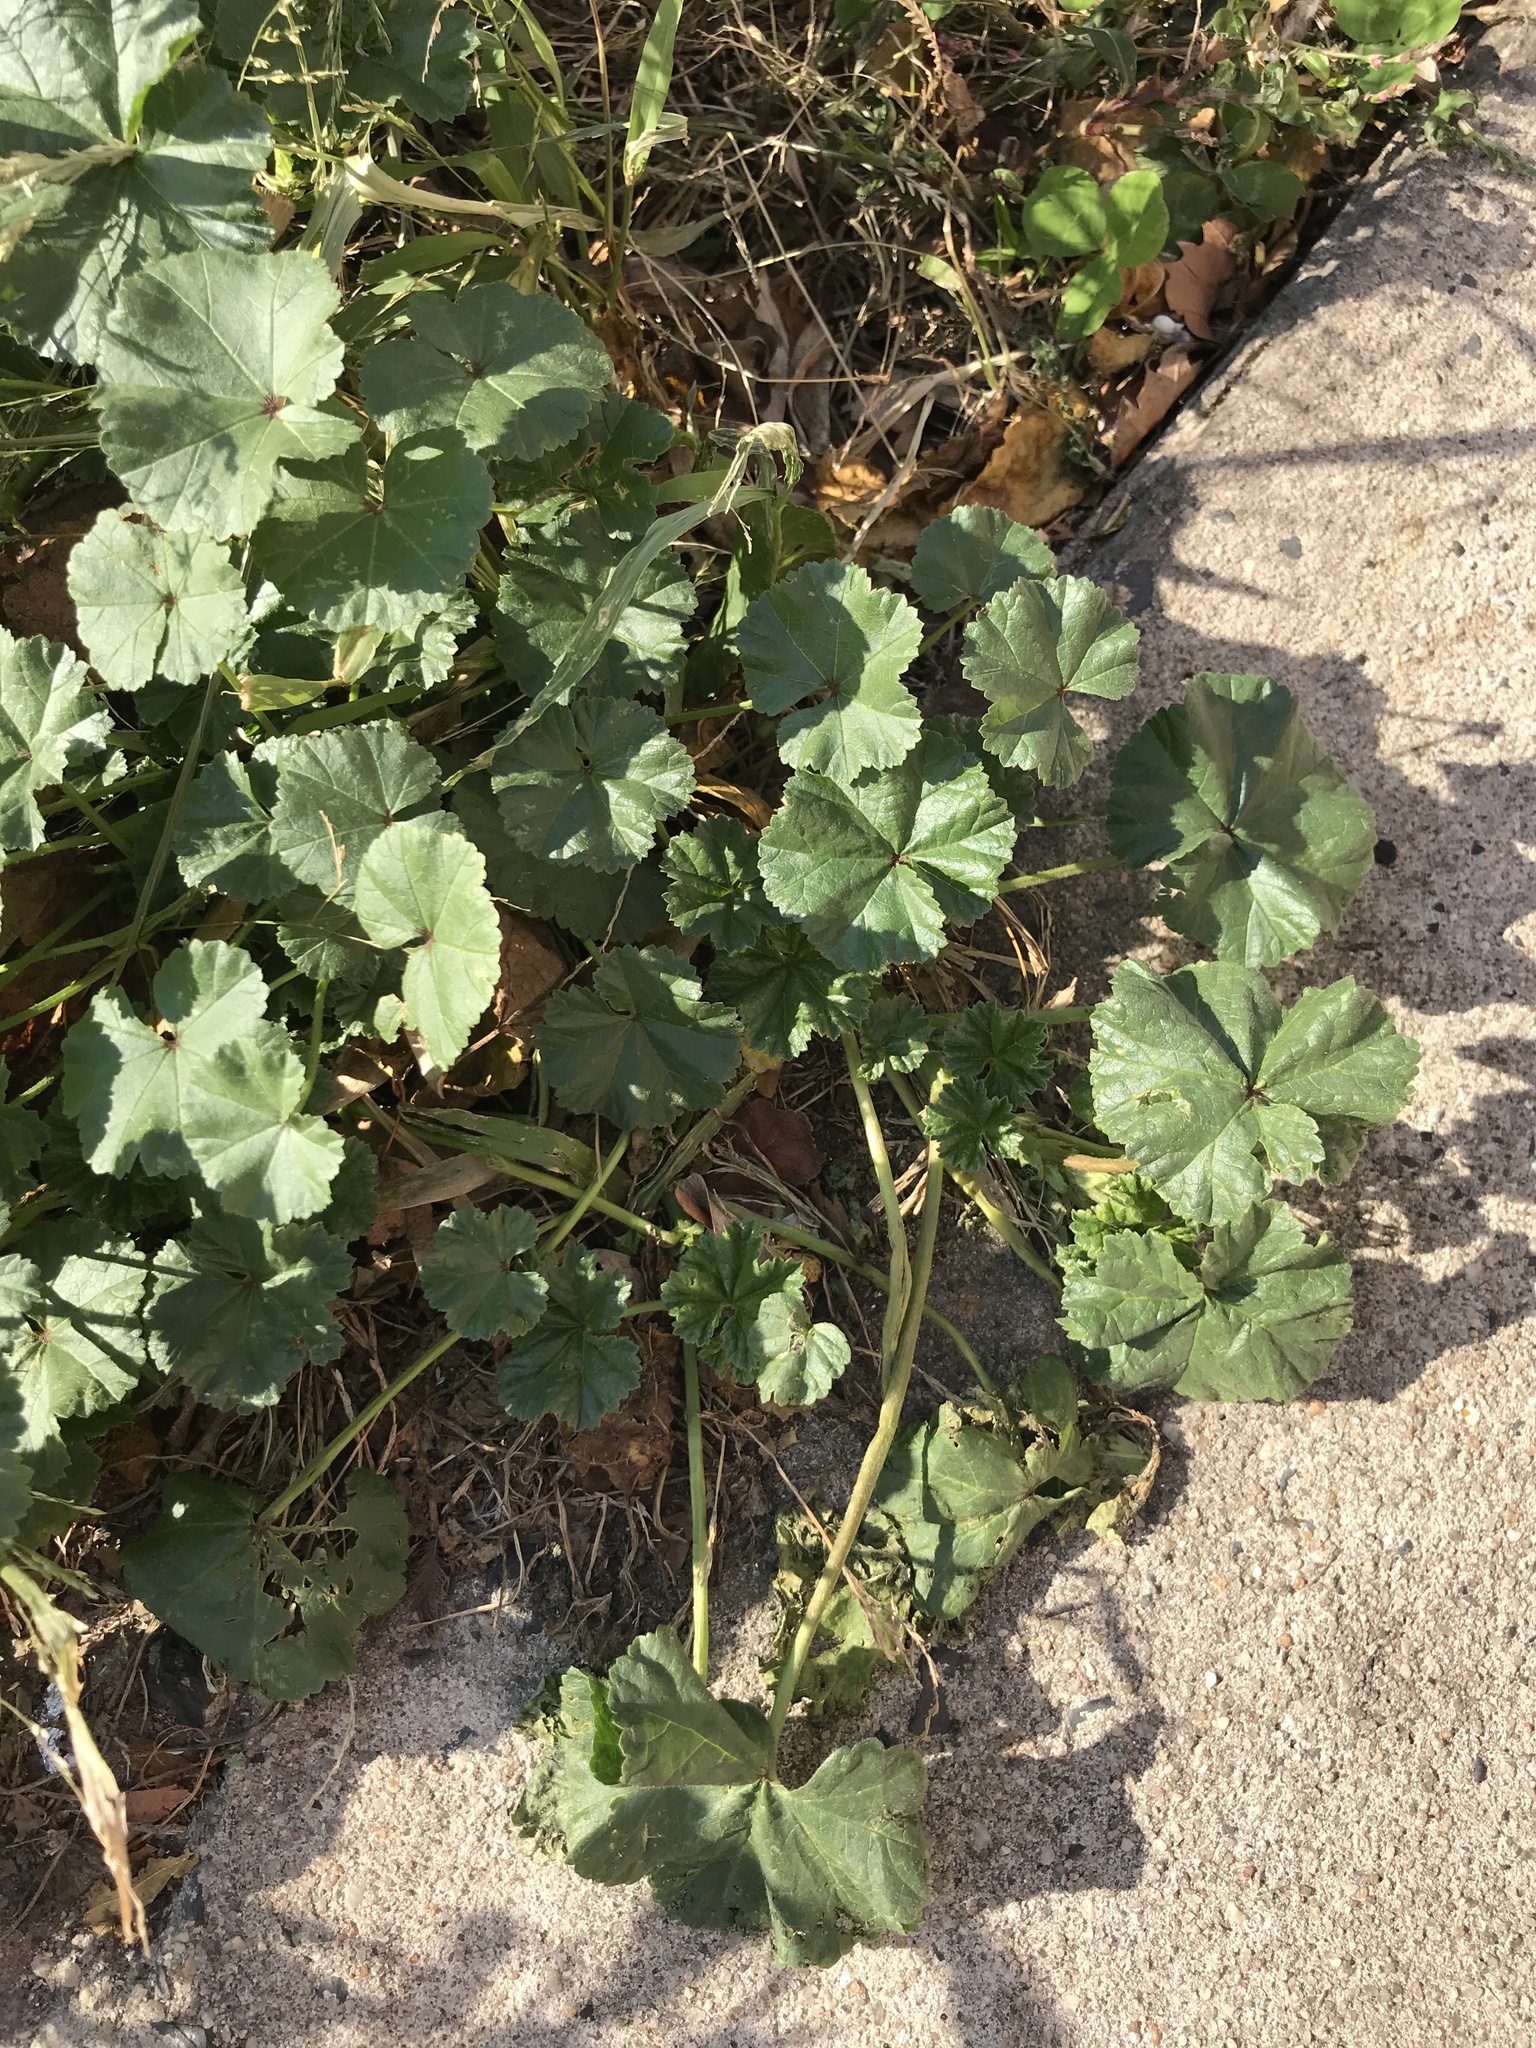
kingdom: Plantae
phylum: Tracheophyta
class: Magnoliopsida
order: Malvales
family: Malvaceae
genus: Malva
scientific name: Malva neglecta
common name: Common mallow
